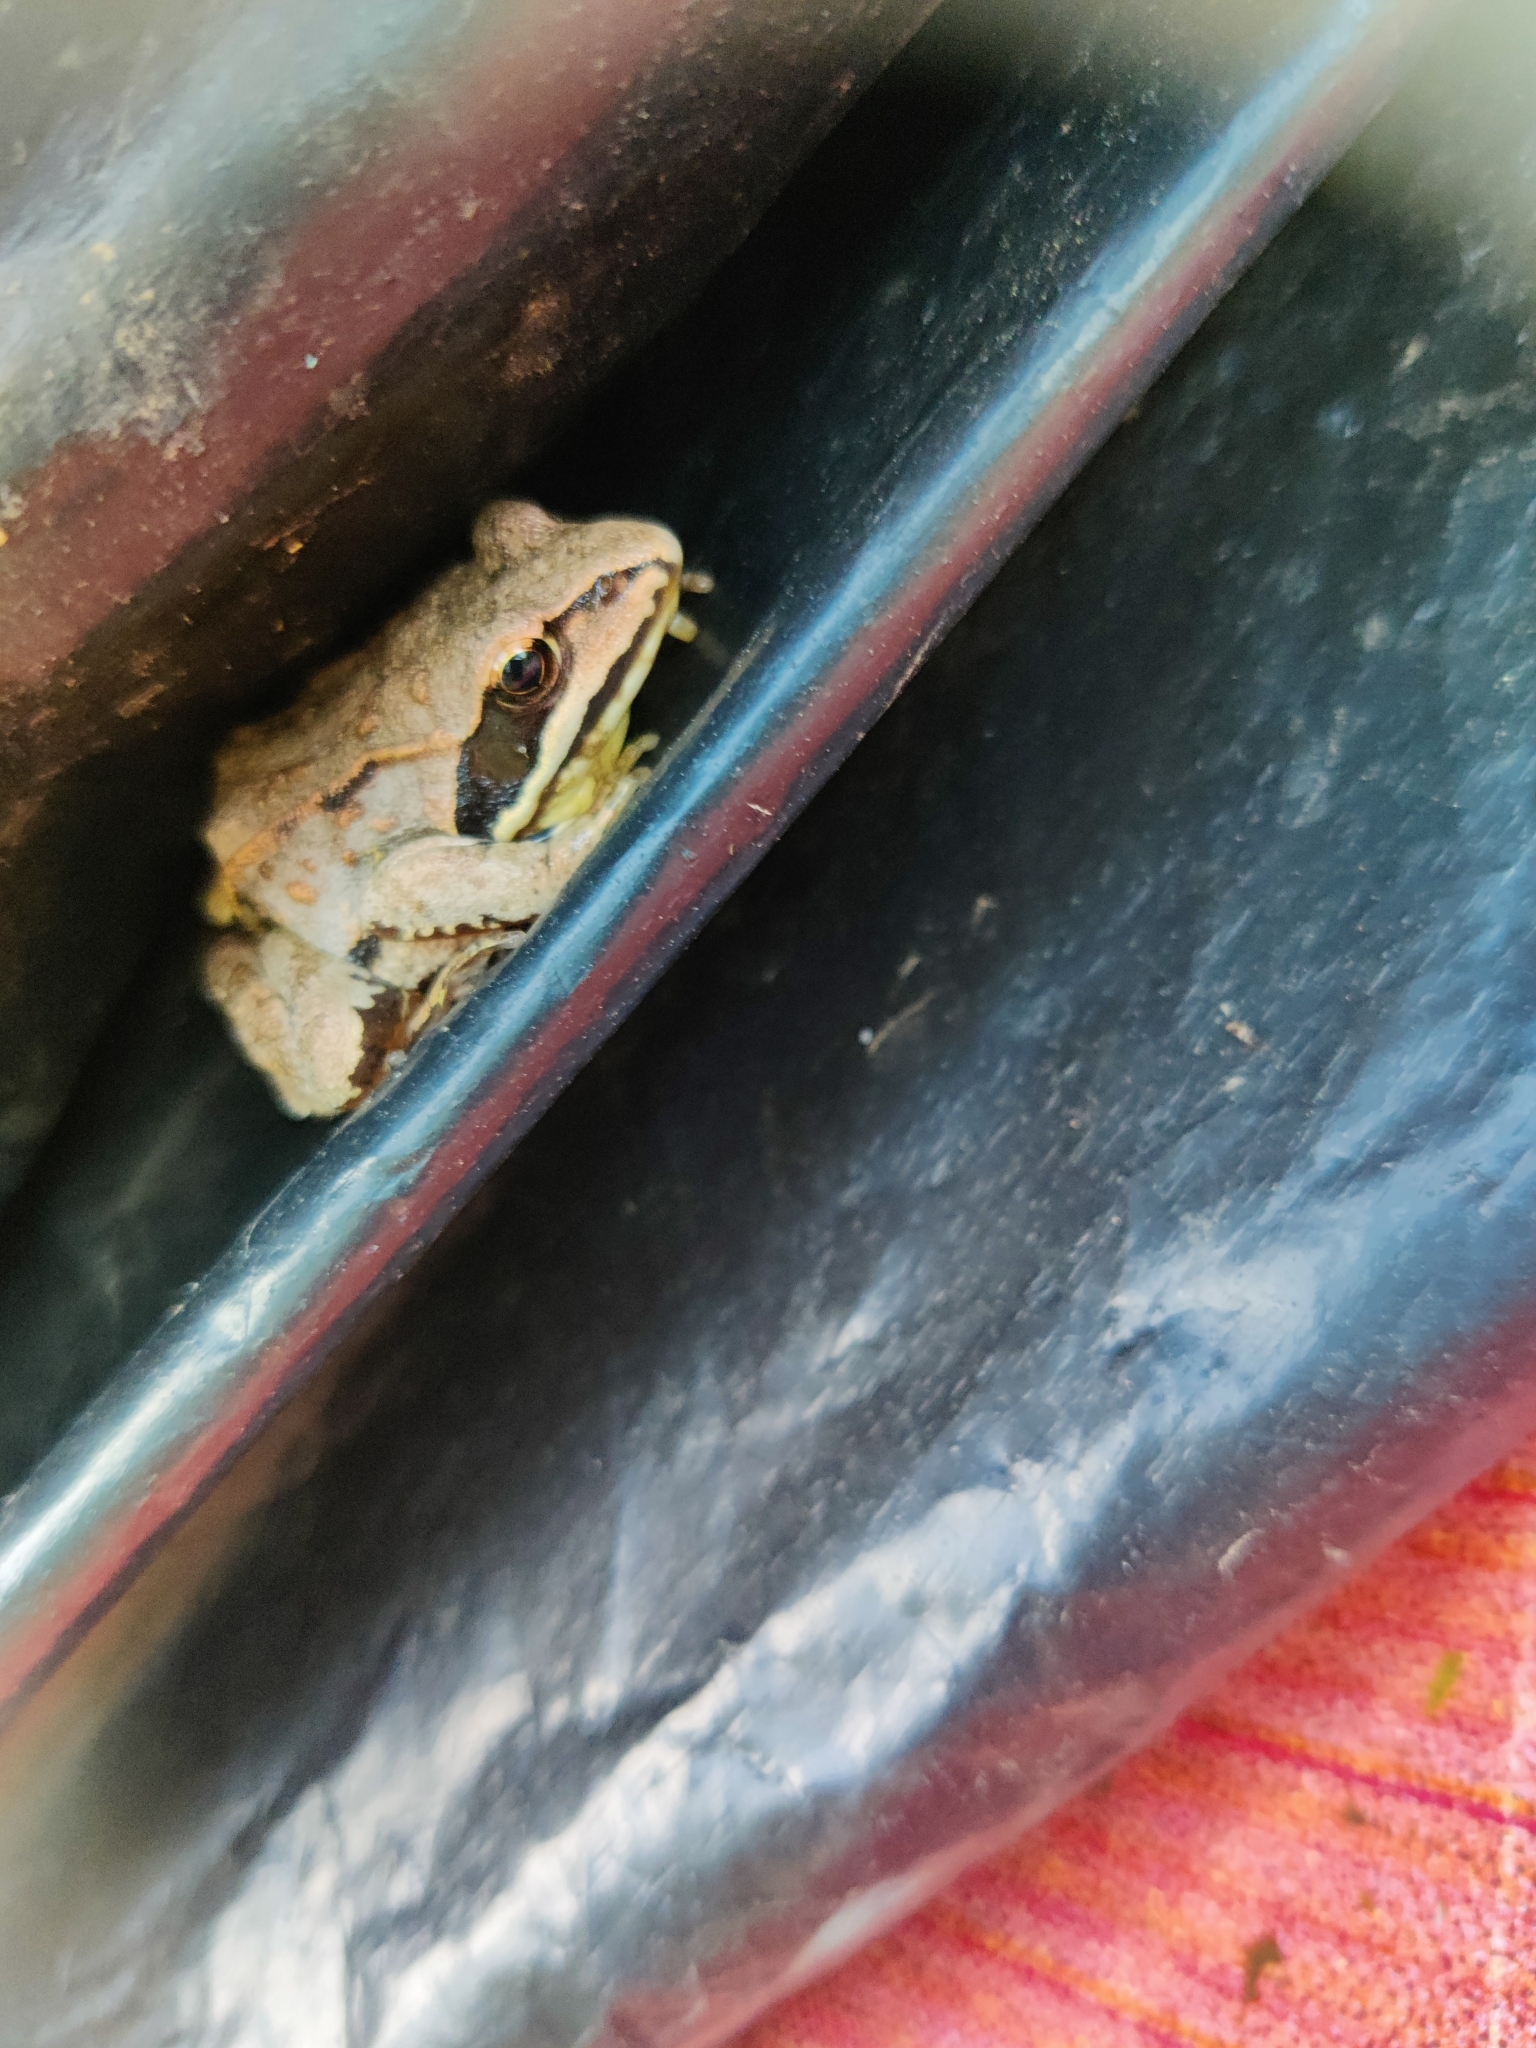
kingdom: Animalia
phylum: Chordata
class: Amphibia
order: Anura
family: Ranidae
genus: Rana
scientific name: Rana arvalis
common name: Moor frog
